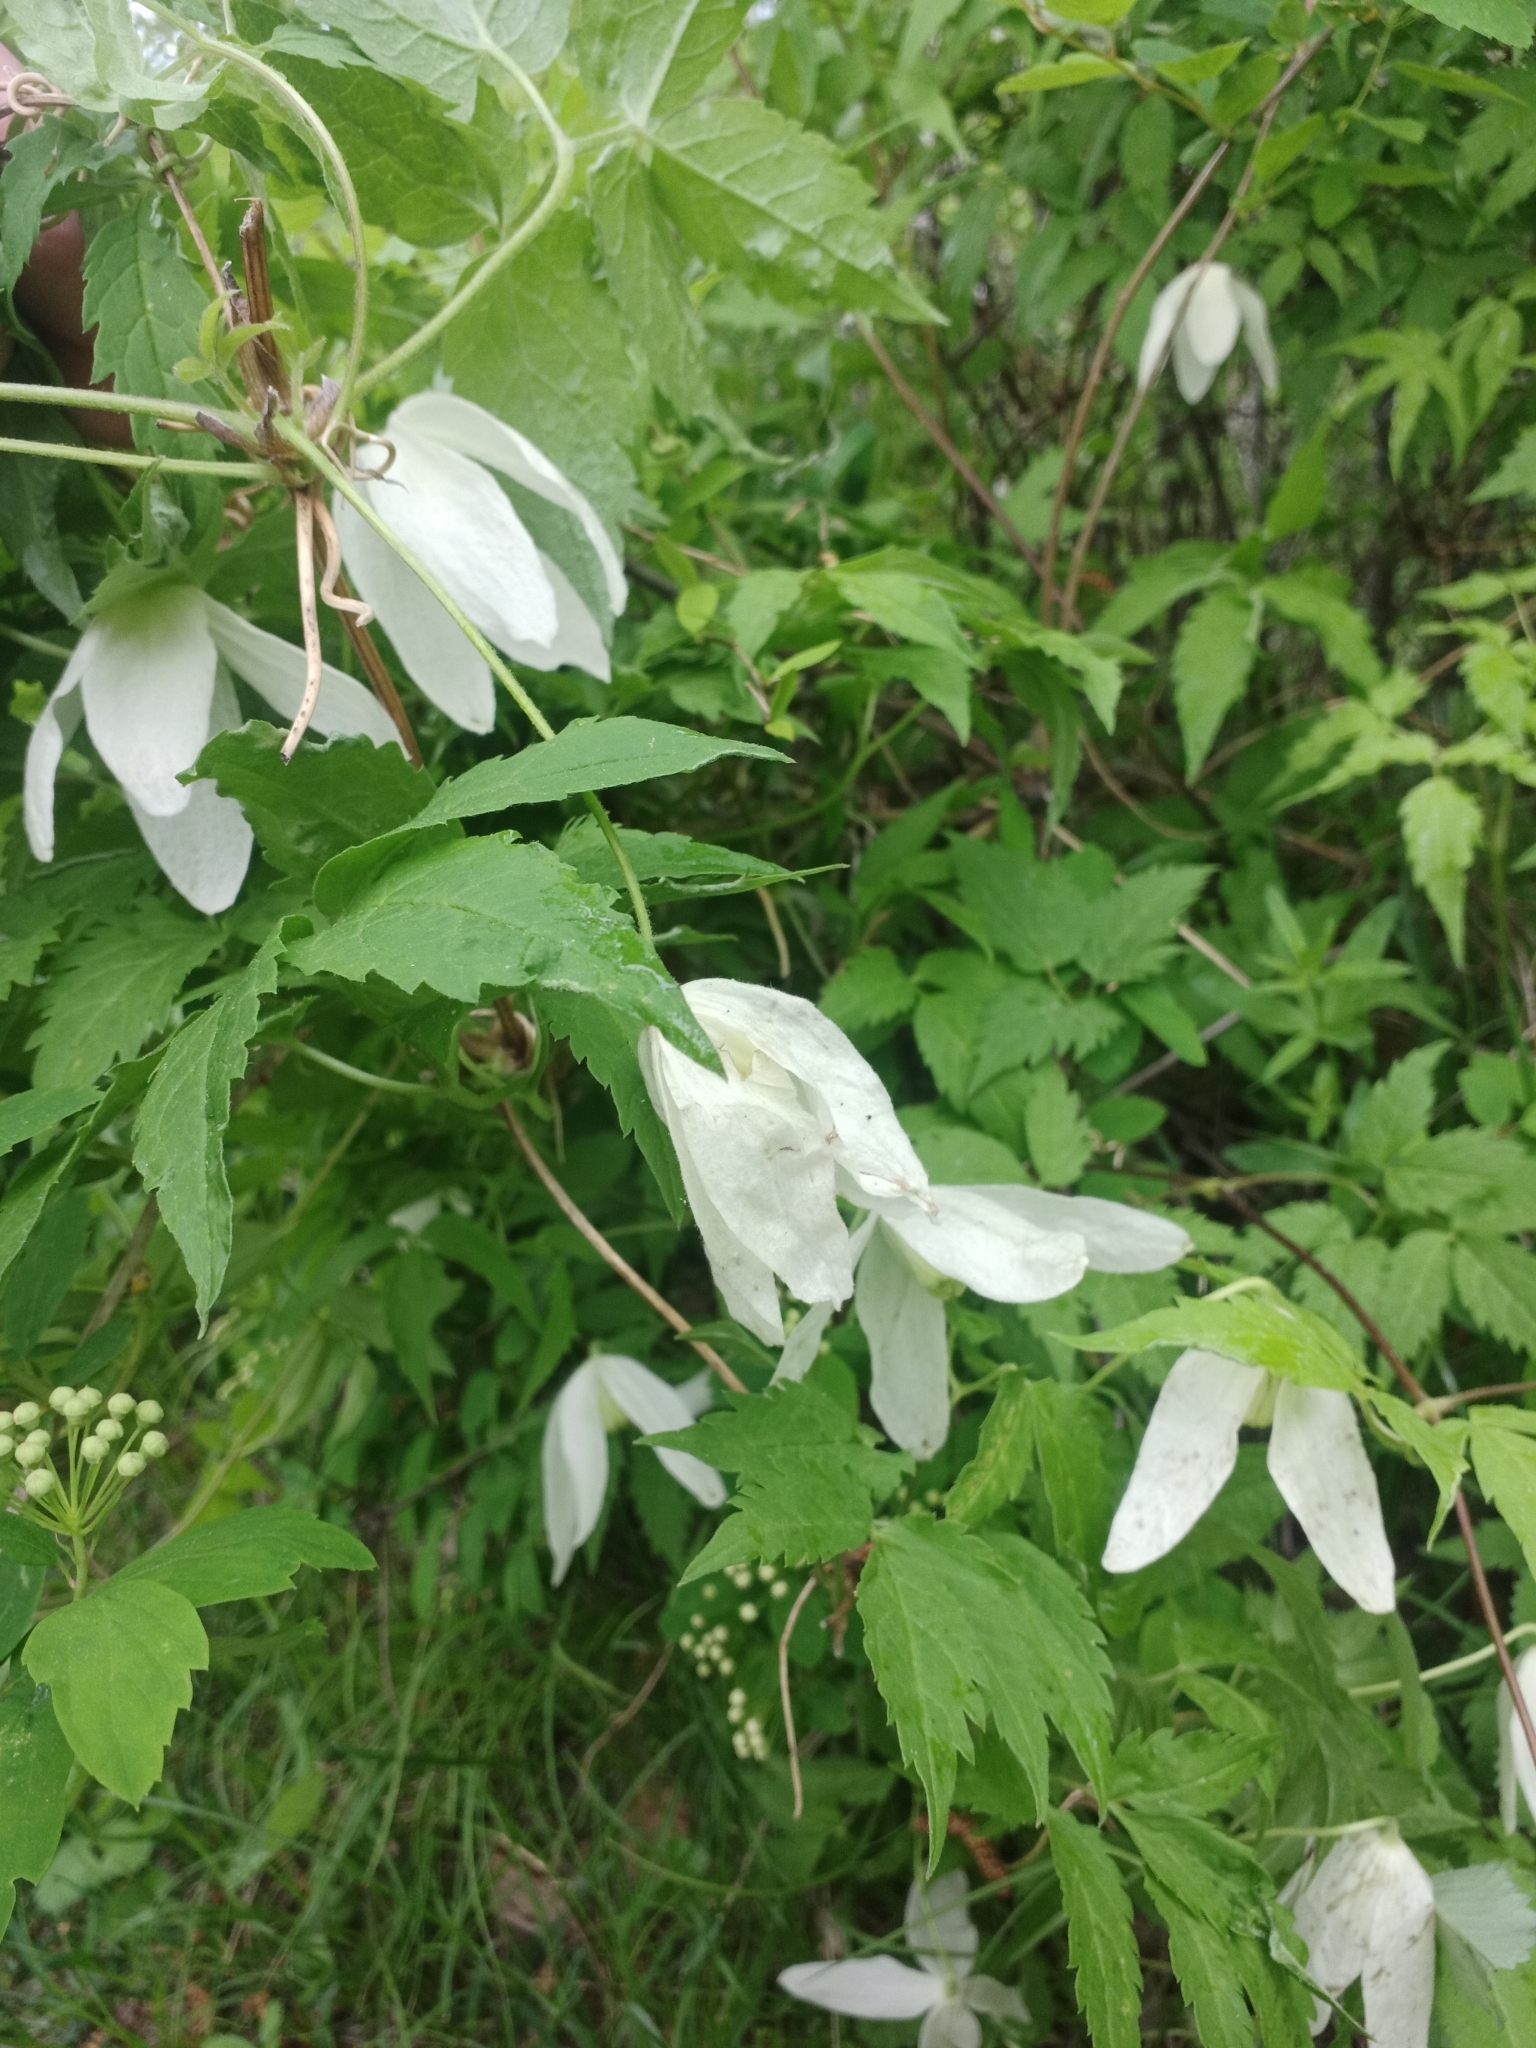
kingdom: Plantae
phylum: Tracheophyta
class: Magnoliopsida
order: Ranunculales
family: Ranunculaceae
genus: Clematis
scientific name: Clematis sibirica
